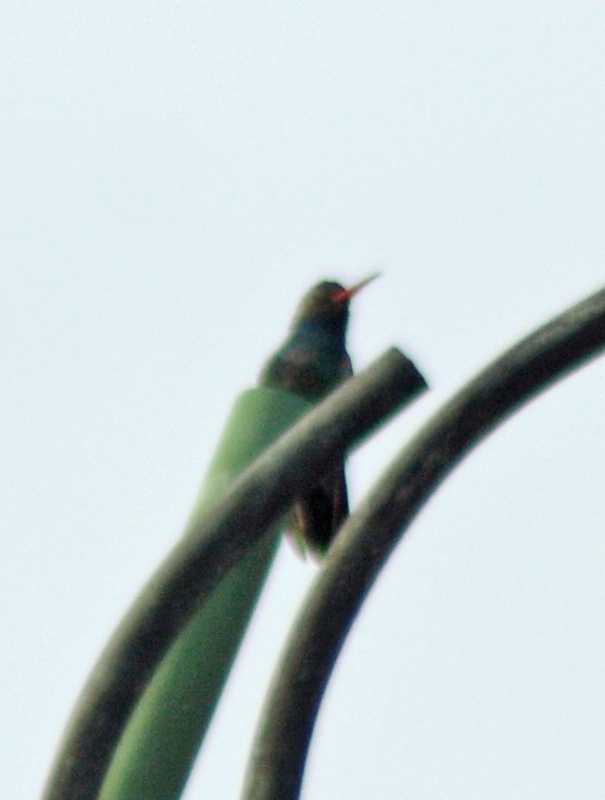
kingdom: Animalia
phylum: Chordata
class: Aves
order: Apodiformes
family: Trochilidae
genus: Cynanthus
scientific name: Cynanthus latirostris
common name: Broad-billed hummingbird
